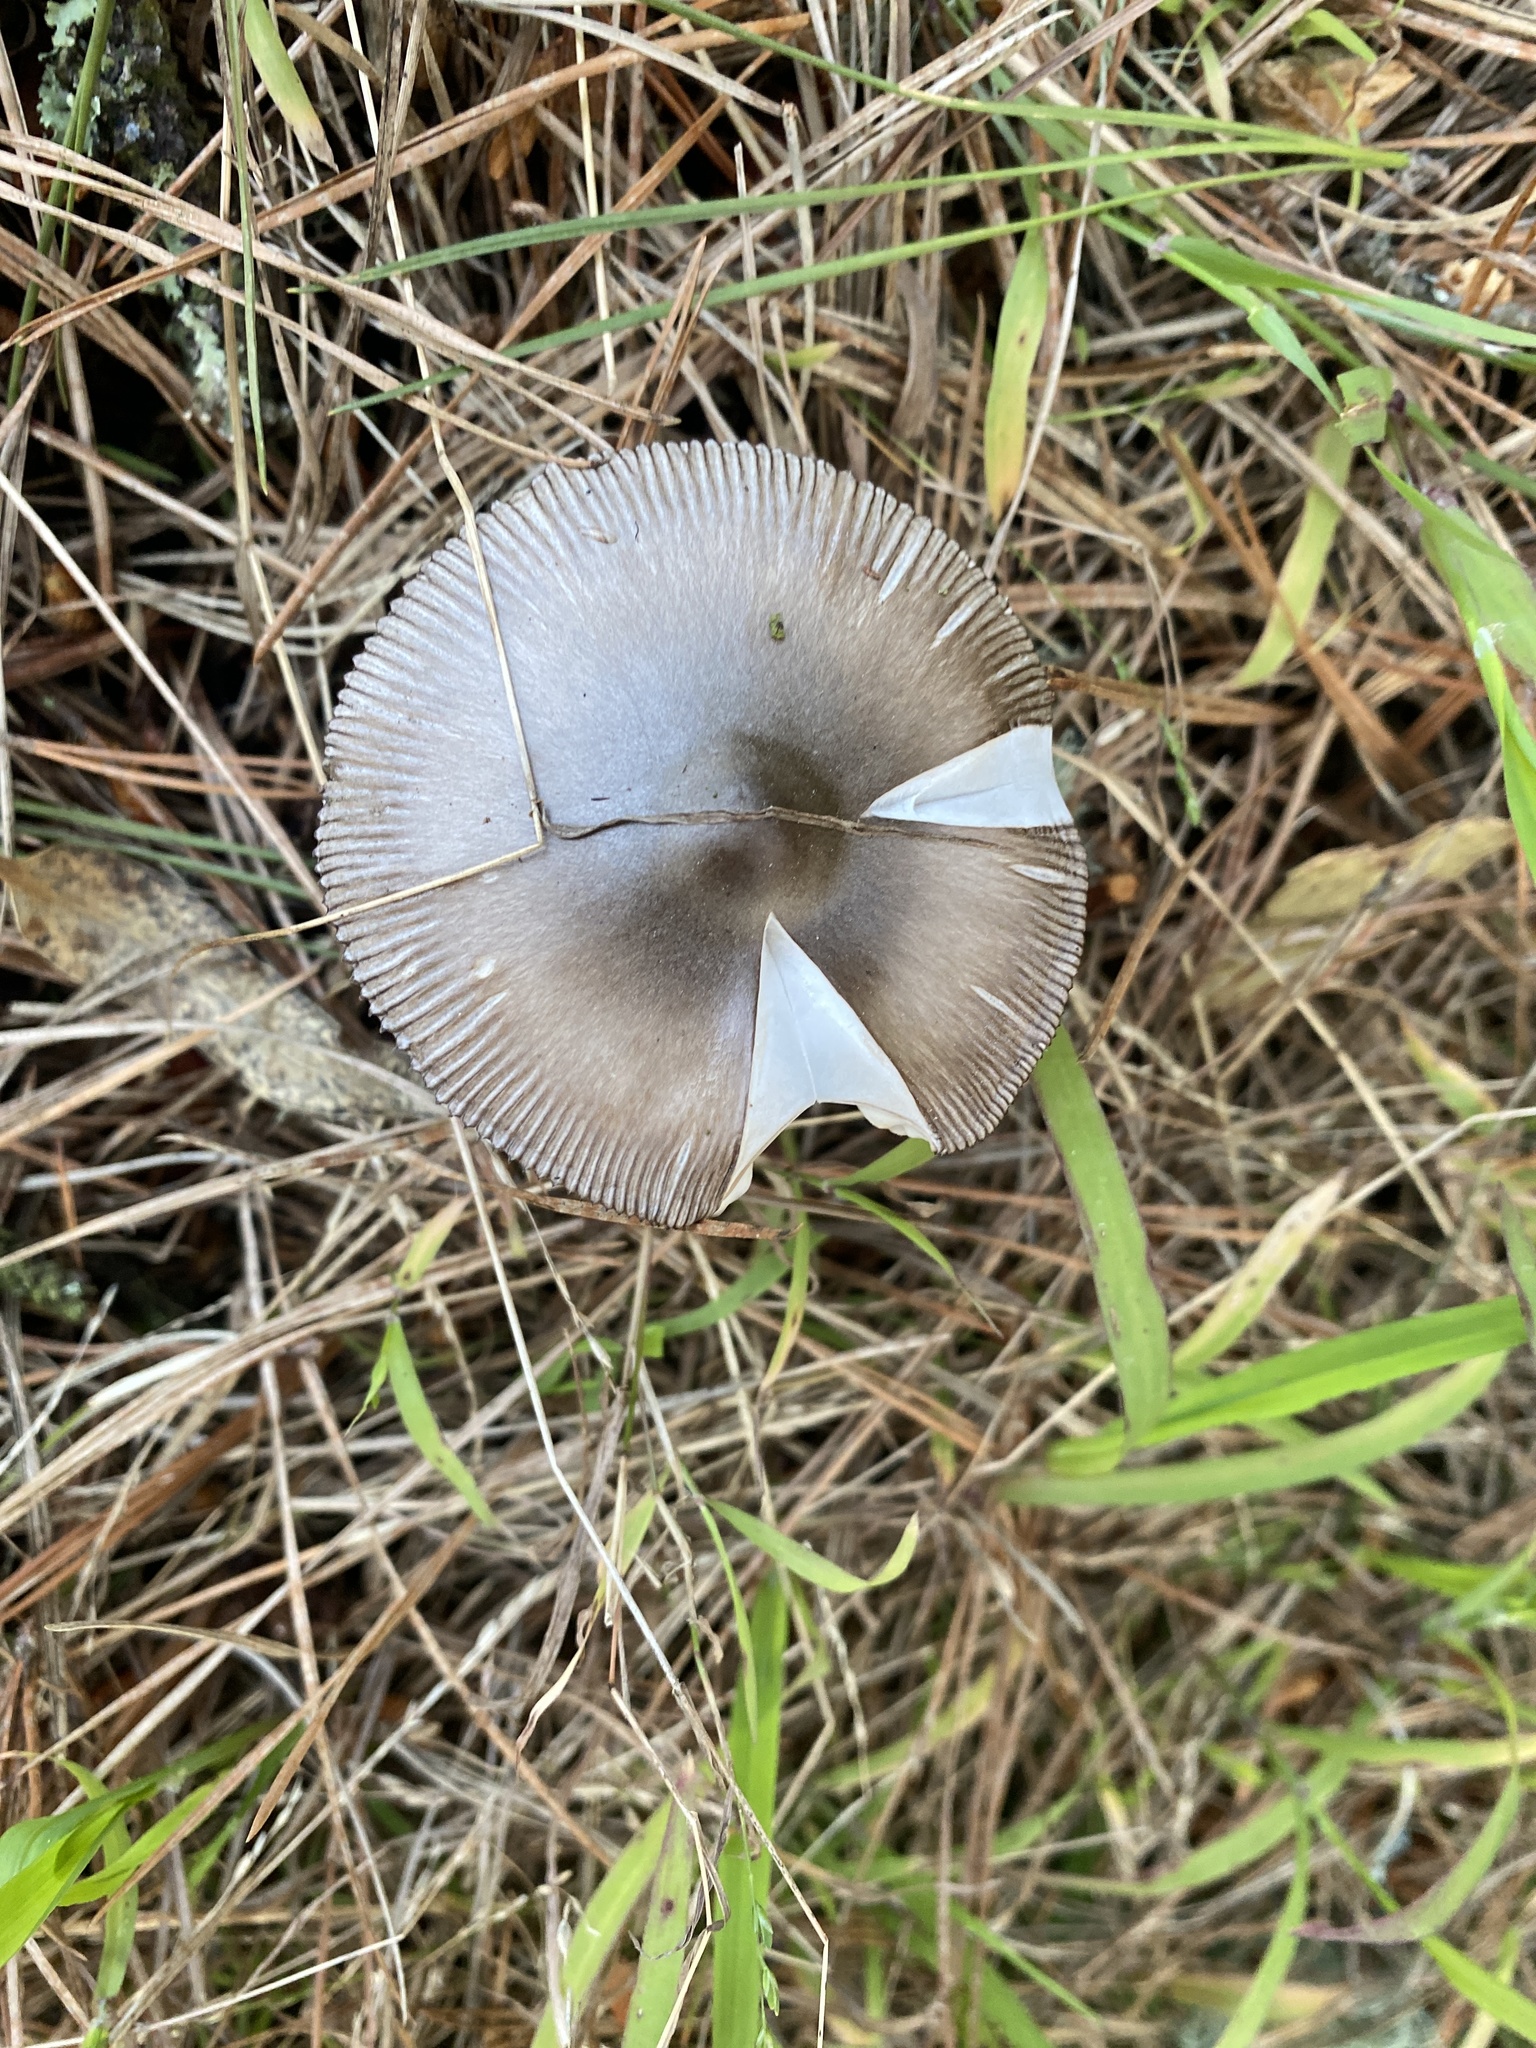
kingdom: Fungi
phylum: Basidiomycota
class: Agaricomycetes
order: Agaricales
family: Amanitaceae
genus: Amanita
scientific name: Amanita pachycolea
